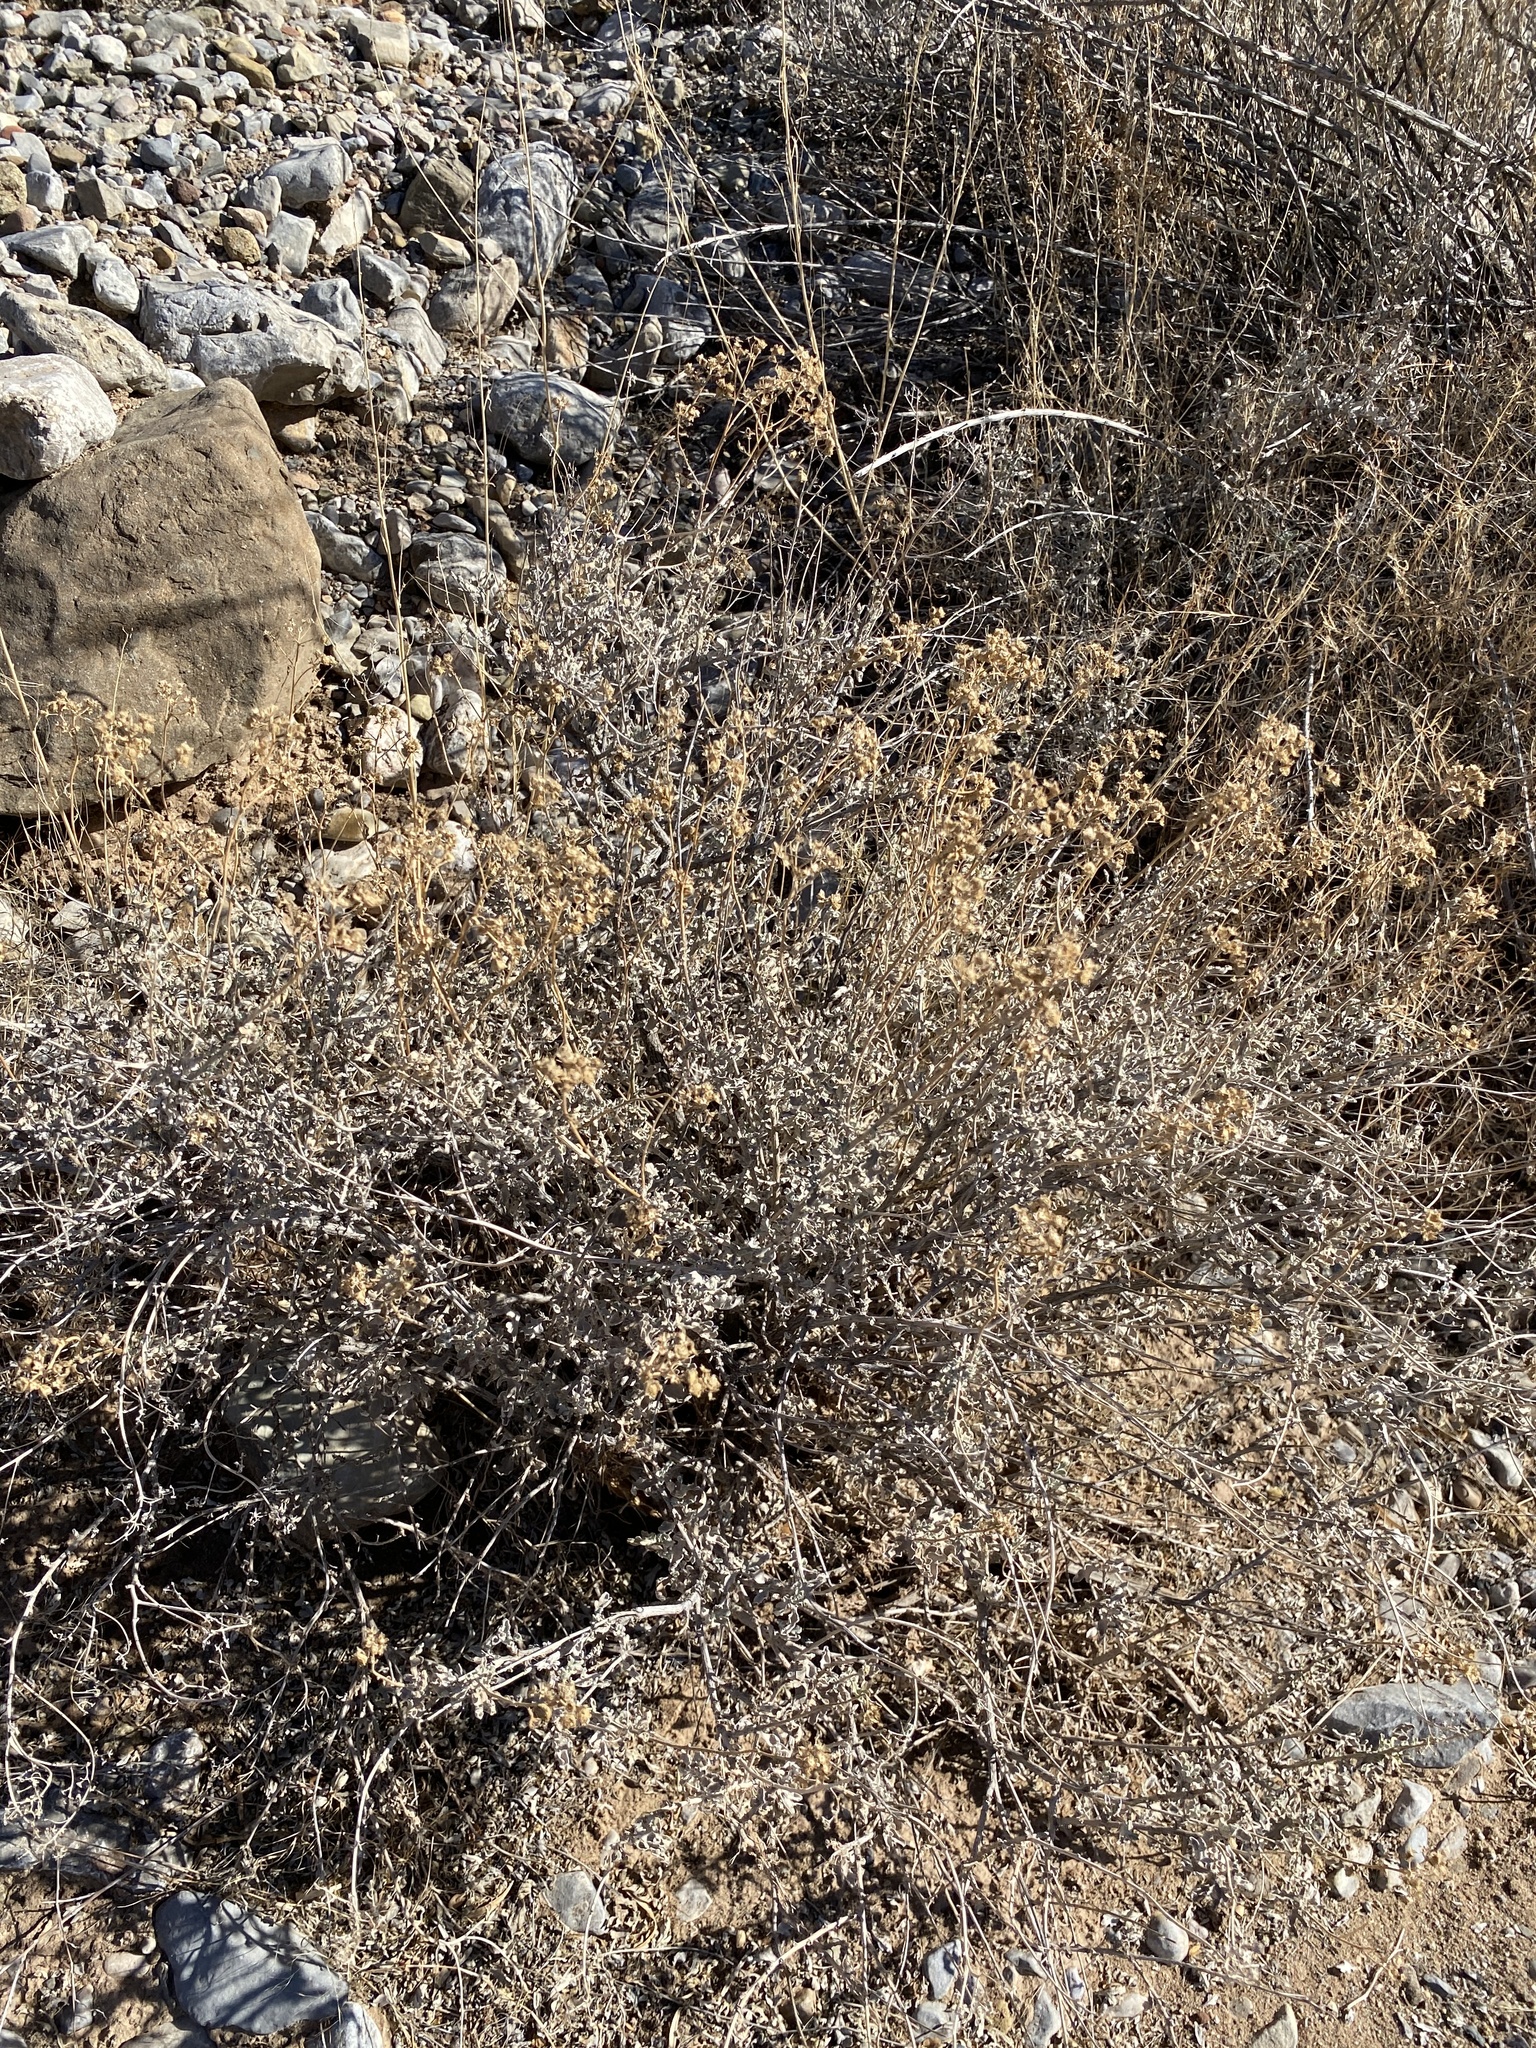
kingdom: Plantae
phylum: Tracheophyta
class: Magnoliopsida
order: Asterales
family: Asteraceae
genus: Parthenium
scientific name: Parthenium incanum
